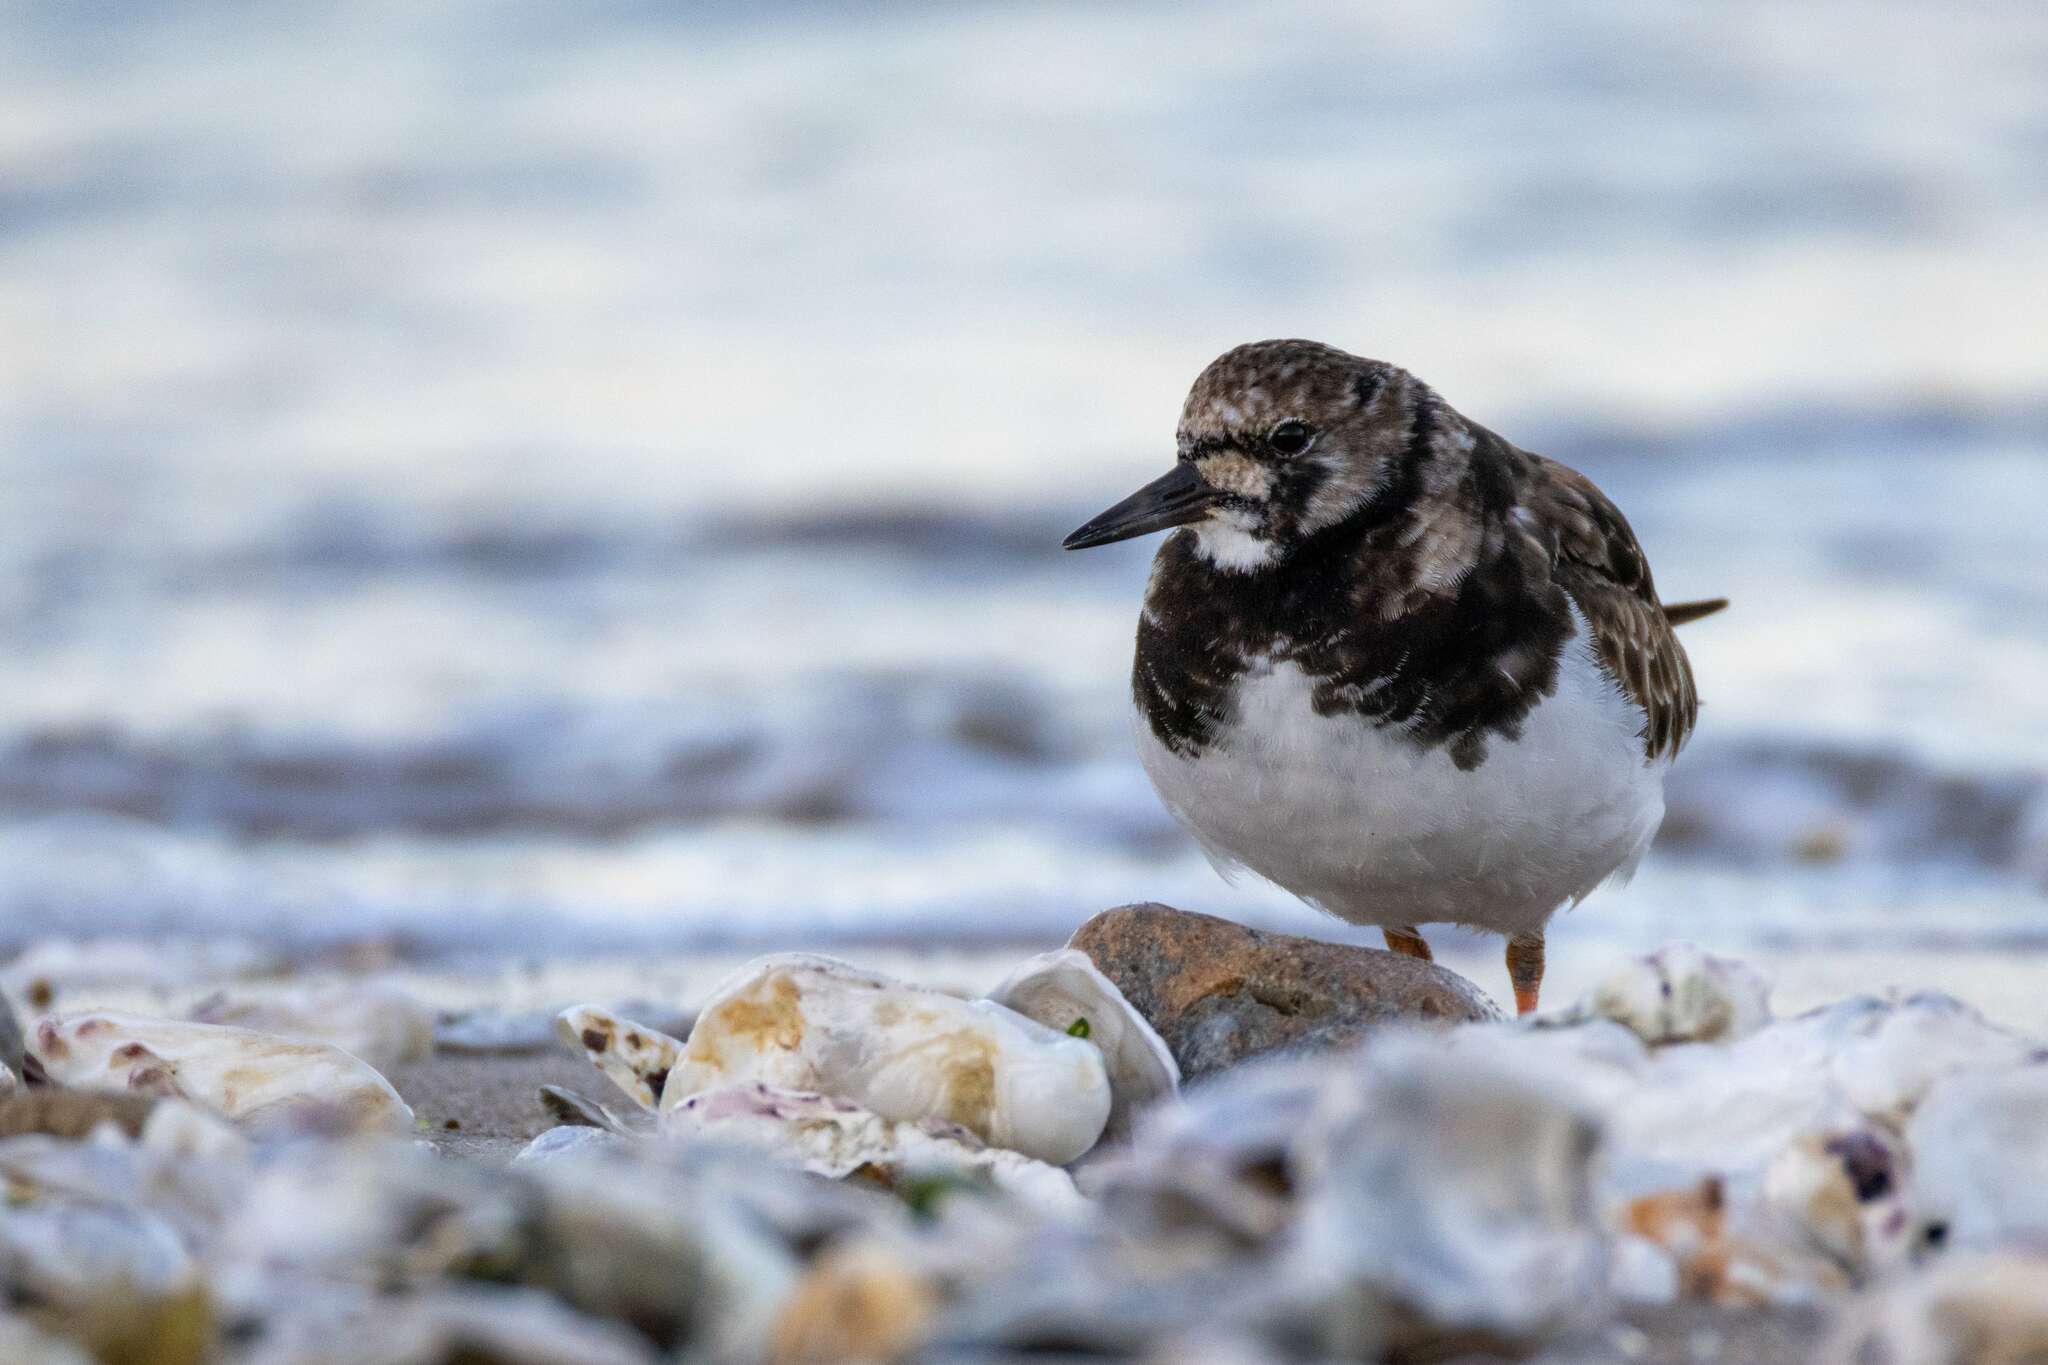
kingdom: Animalia
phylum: Chordata
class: Aves
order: Charadriiformes
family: Scolopacidae
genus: Arenaria
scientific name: Arenaria interpres
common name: Ruddy turnstone
